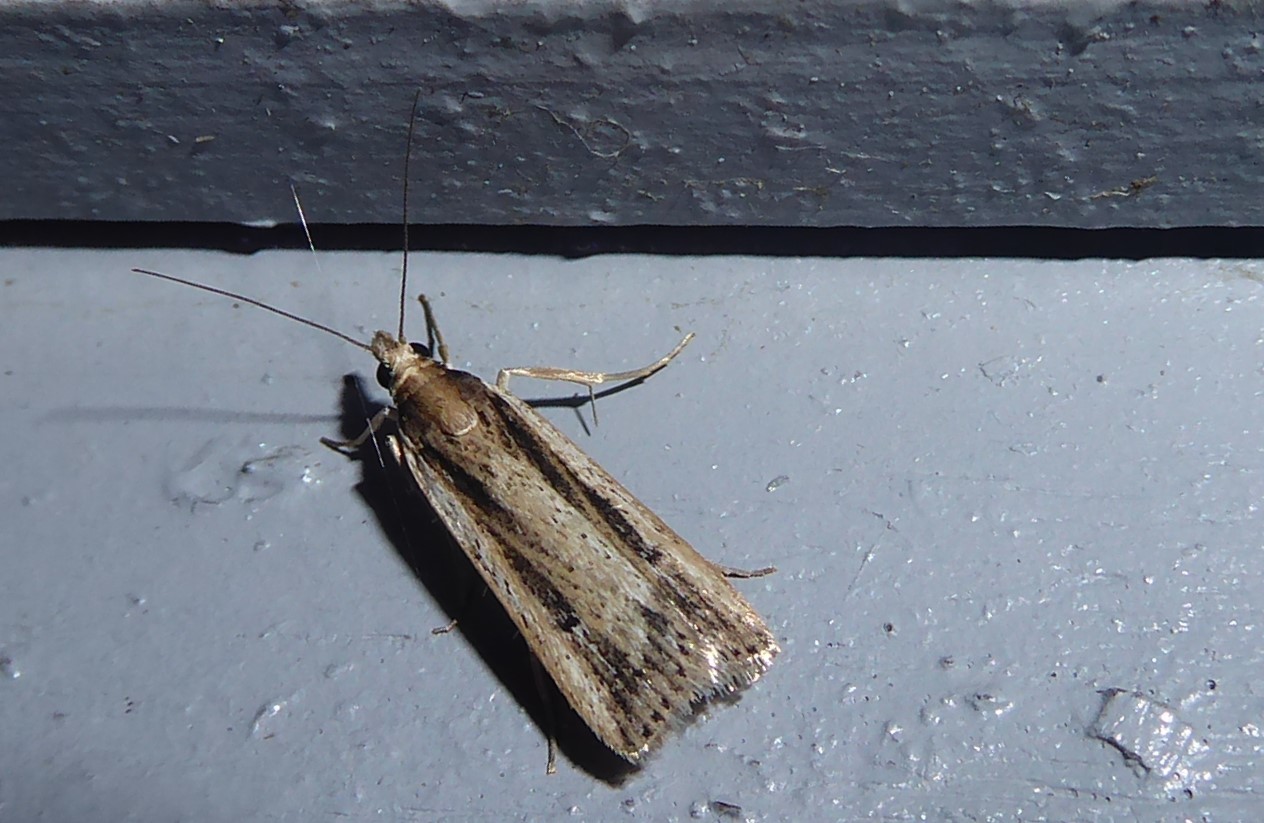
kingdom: Animalia
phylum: Arthropoda
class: Insecta
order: Lepidoptera
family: Crambidae
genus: Eudonia
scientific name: Eudonia sabulosella
